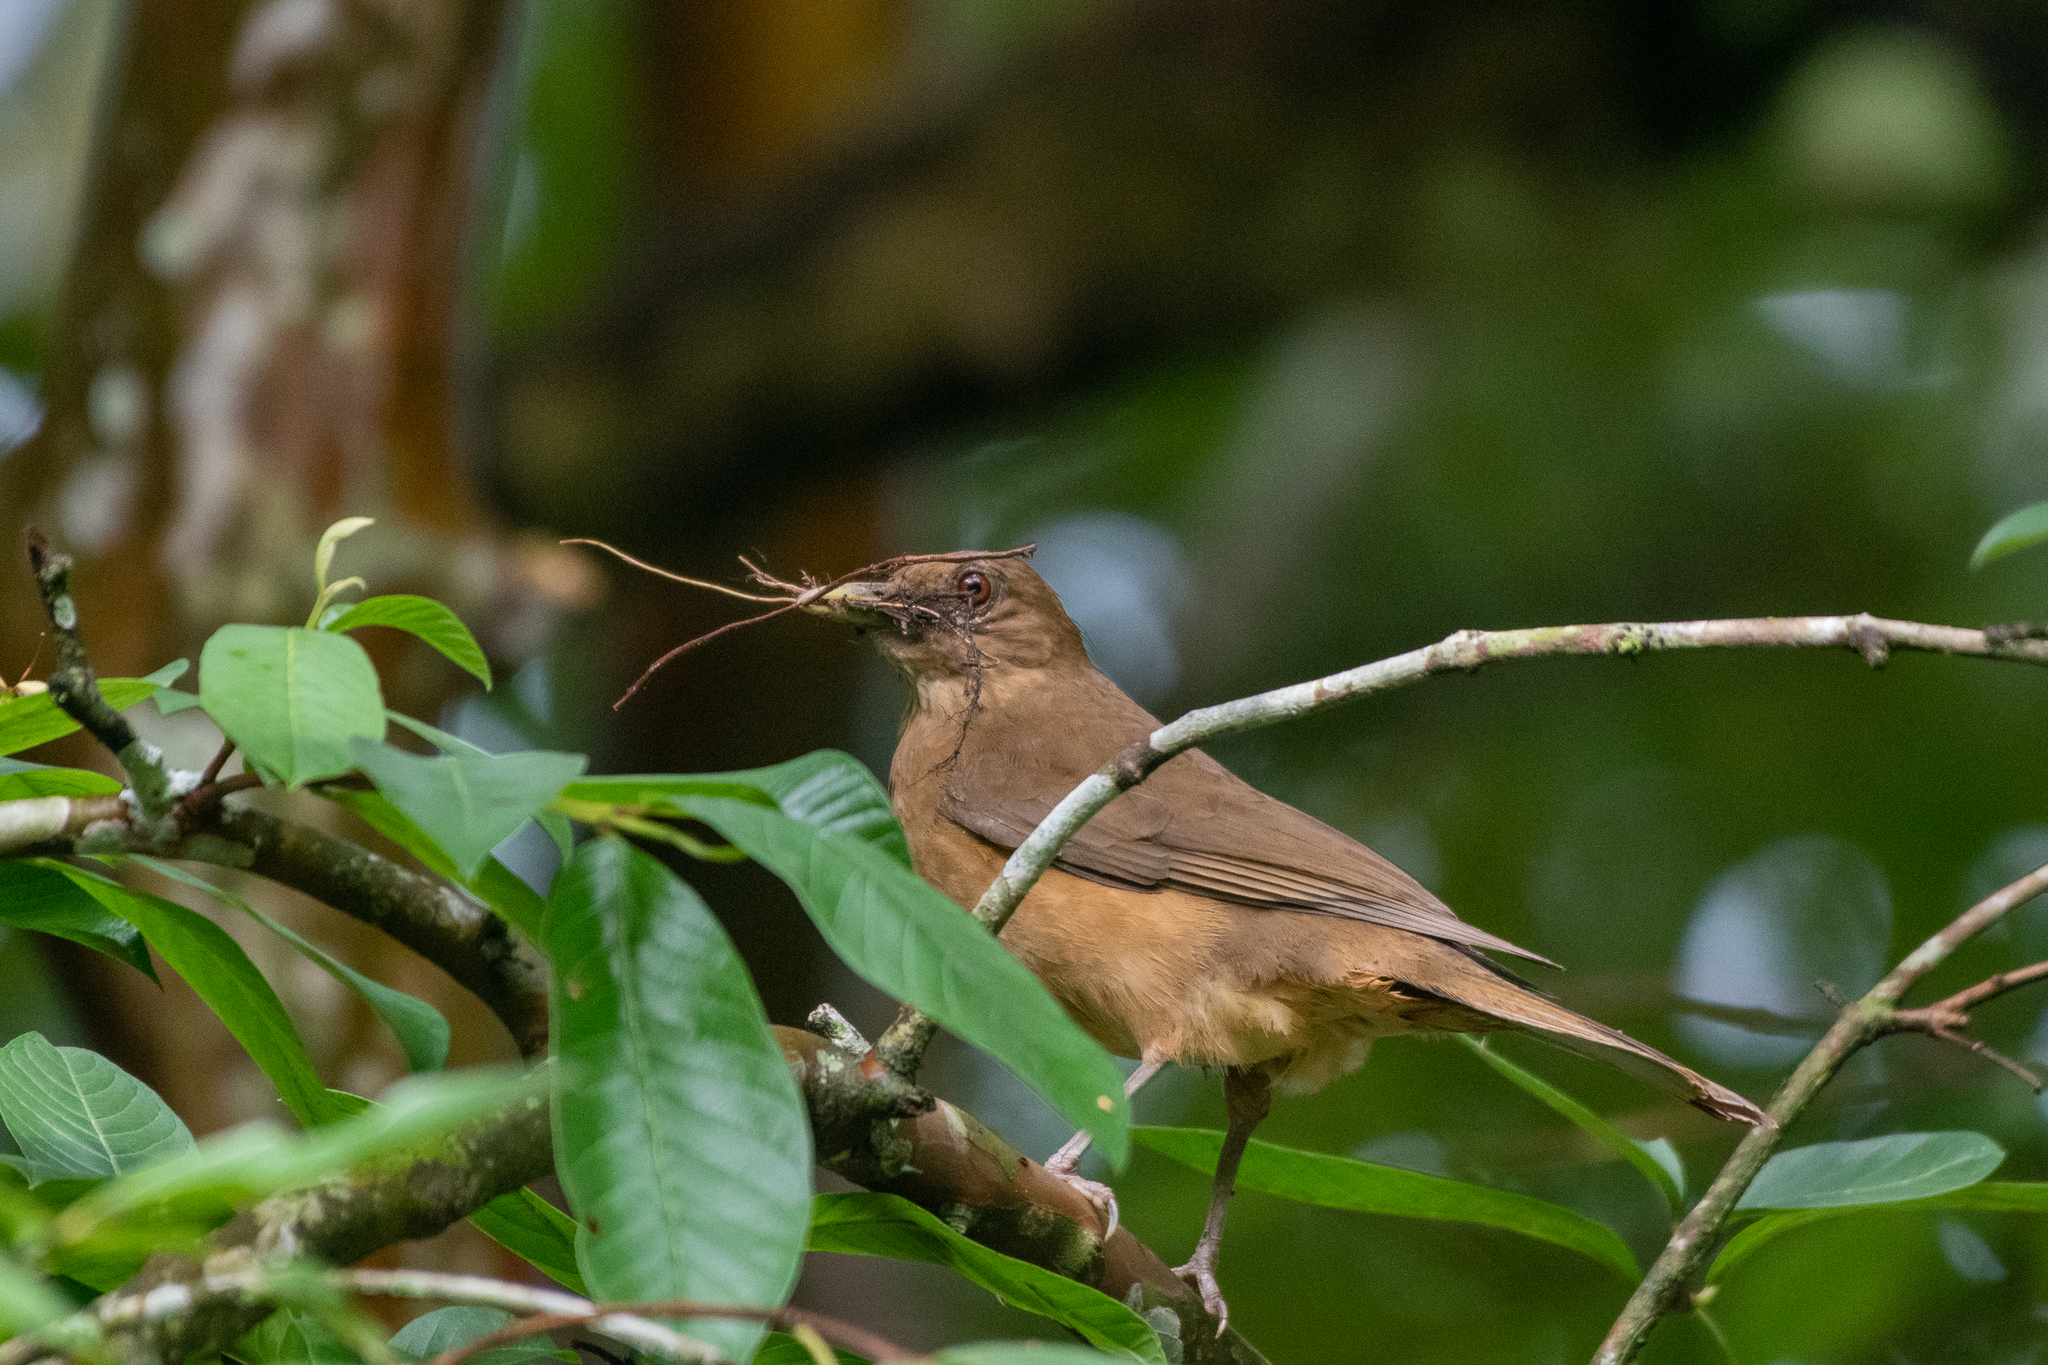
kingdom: Animalia
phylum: Chordata
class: Aves
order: Passeriformes
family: Turdidae
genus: Turdus
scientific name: Turdus grayi
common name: Clay-colored thrush
